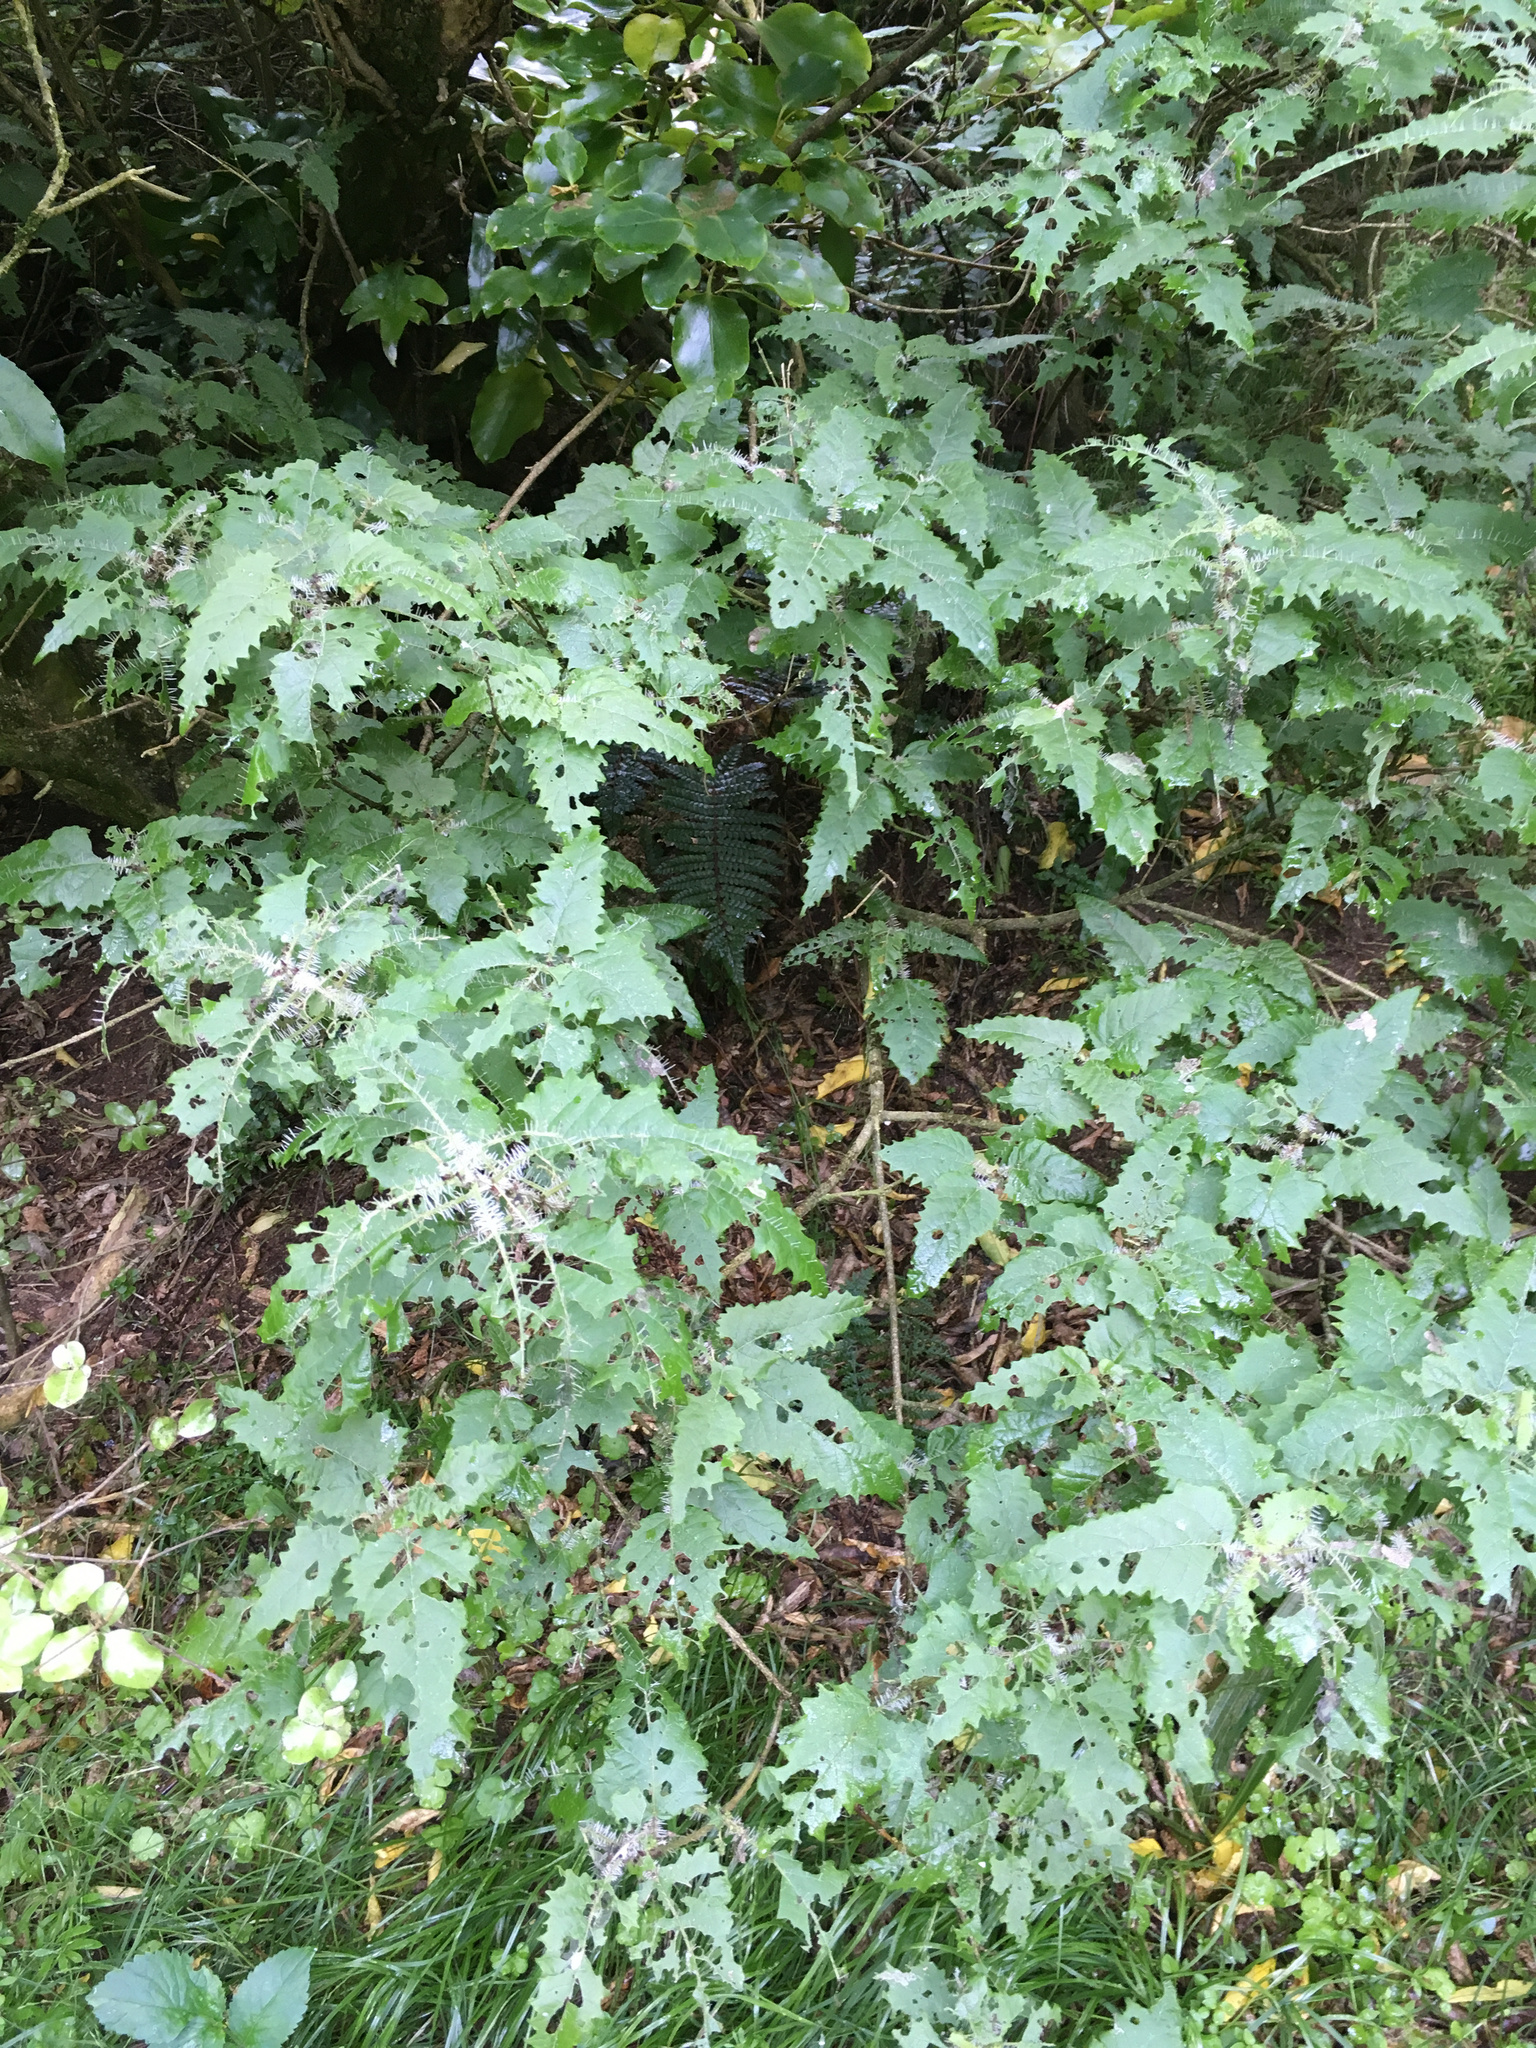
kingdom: Plantae
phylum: Tracheophyta
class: Magnoliopsida
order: Rosales
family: Urticaceae
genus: Urtica
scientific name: Urtica ferox
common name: Tree nettle
